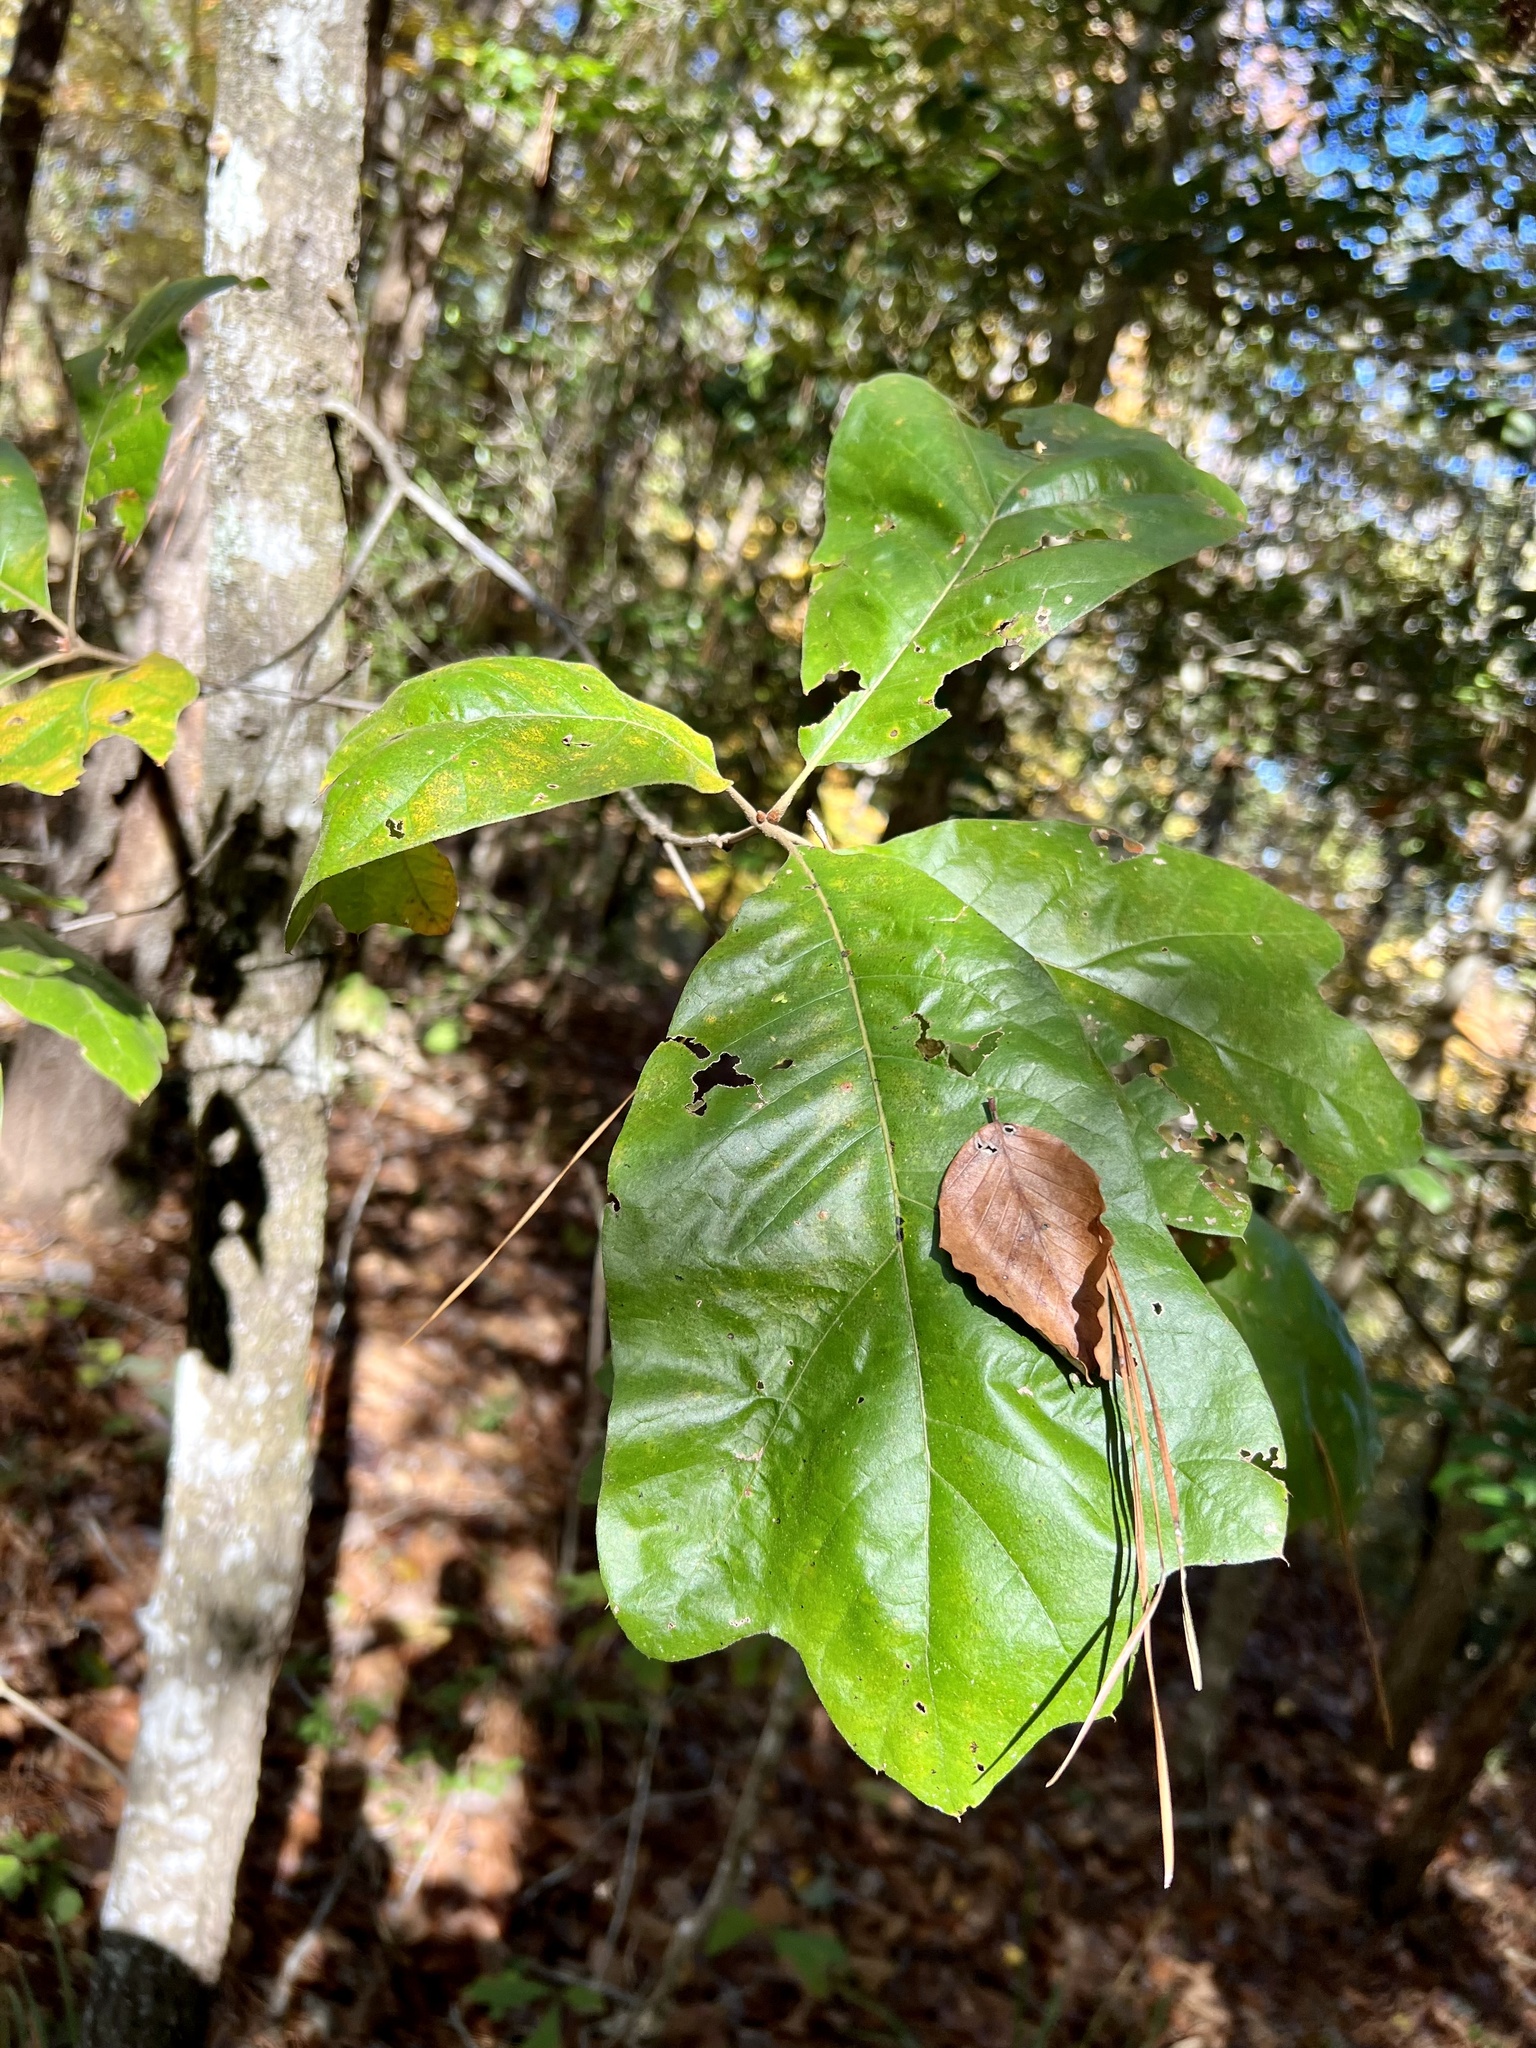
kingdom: Plantae
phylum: Tracheophyta
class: Magnoliopsida
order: Fagales
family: Fagaceae
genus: Quercus
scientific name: Quercus marilandica
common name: Blackjack oak
